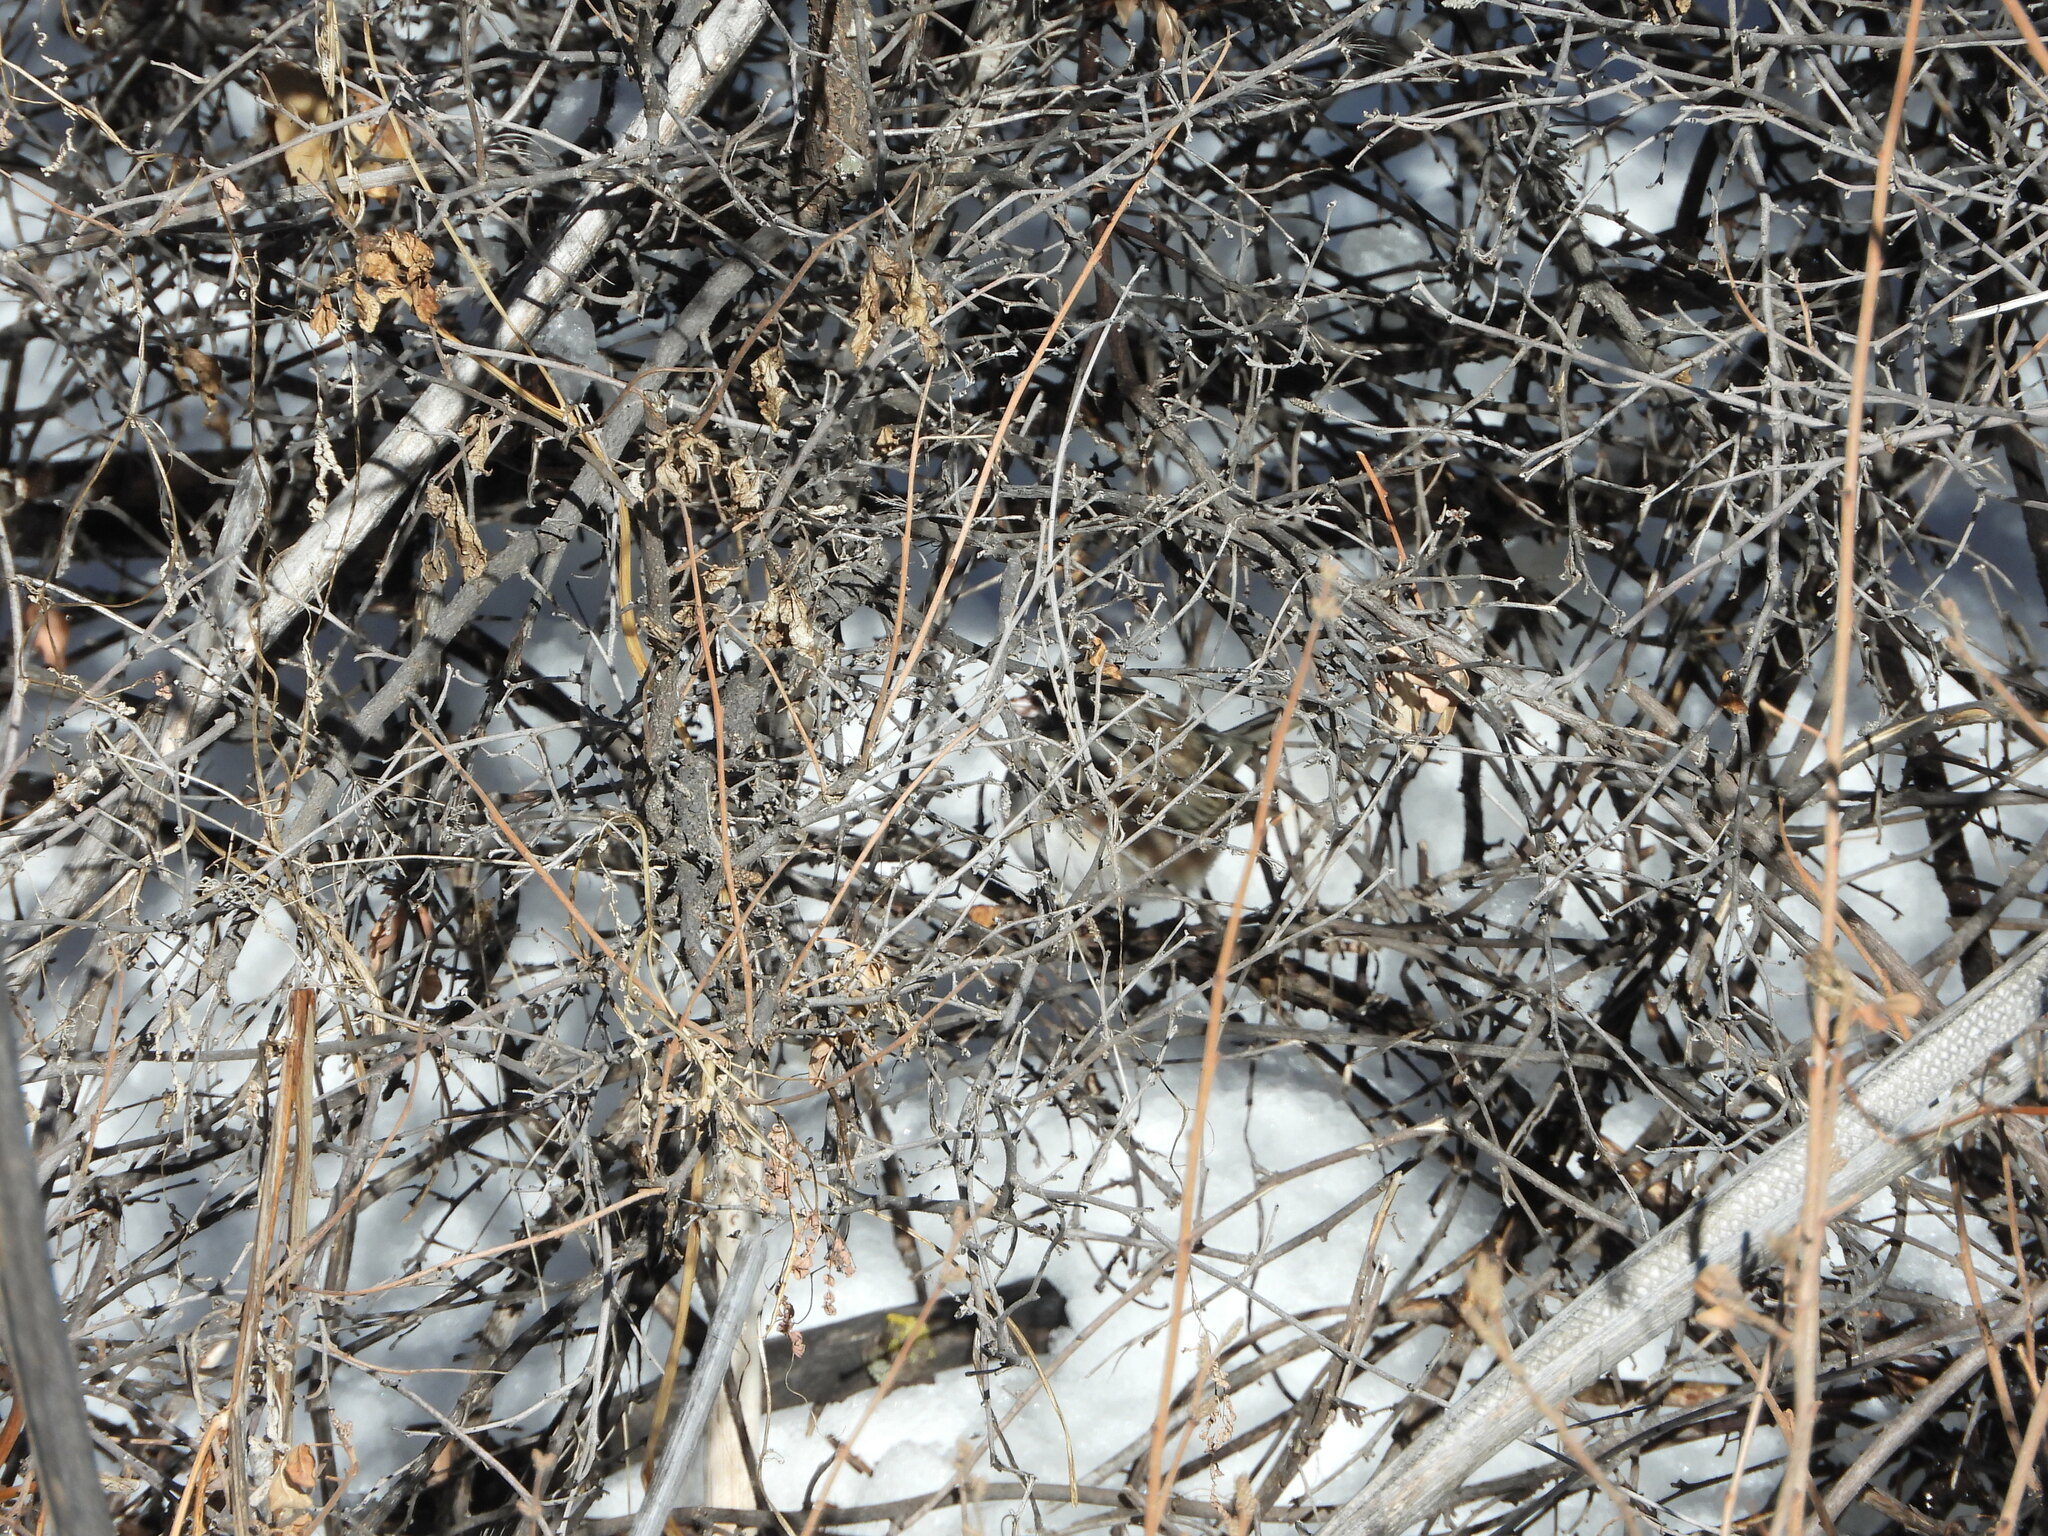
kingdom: Animalia
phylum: Chordata
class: Aves
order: Passeriformes
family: Passerellidae
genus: Junco
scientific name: Junco hyemalis
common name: Dark-eyed junco
